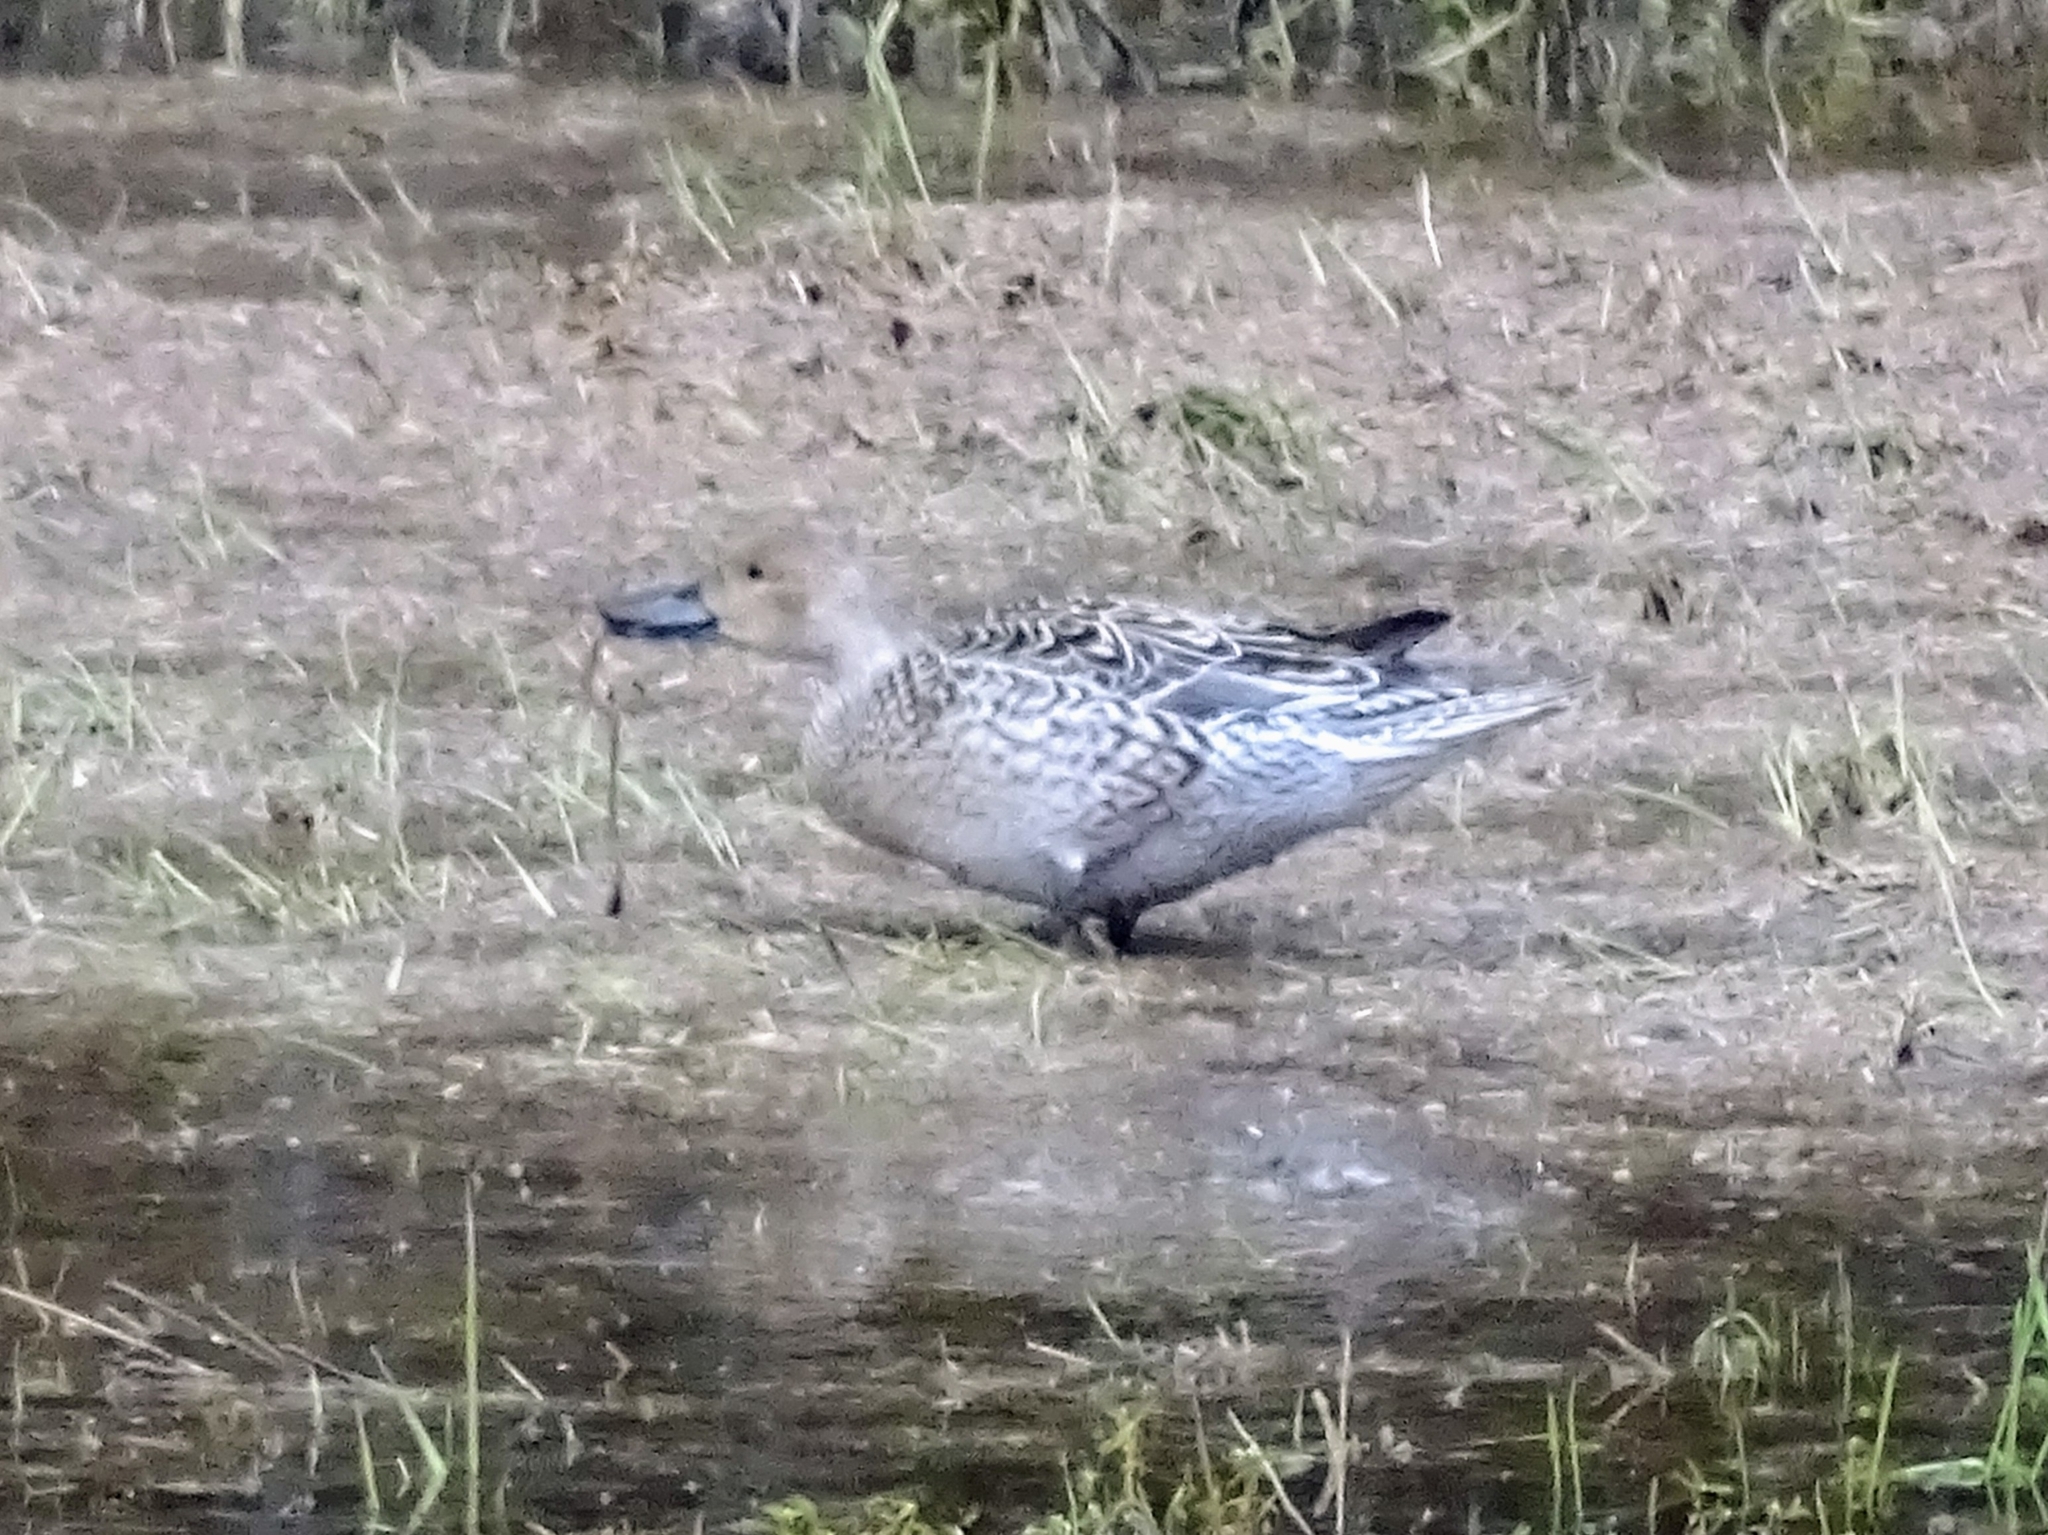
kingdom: Animalia
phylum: Chordata
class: Aves
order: Anseriformes
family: Anatidae
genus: Anas
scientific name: Anas acuta
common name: Northern pintail
